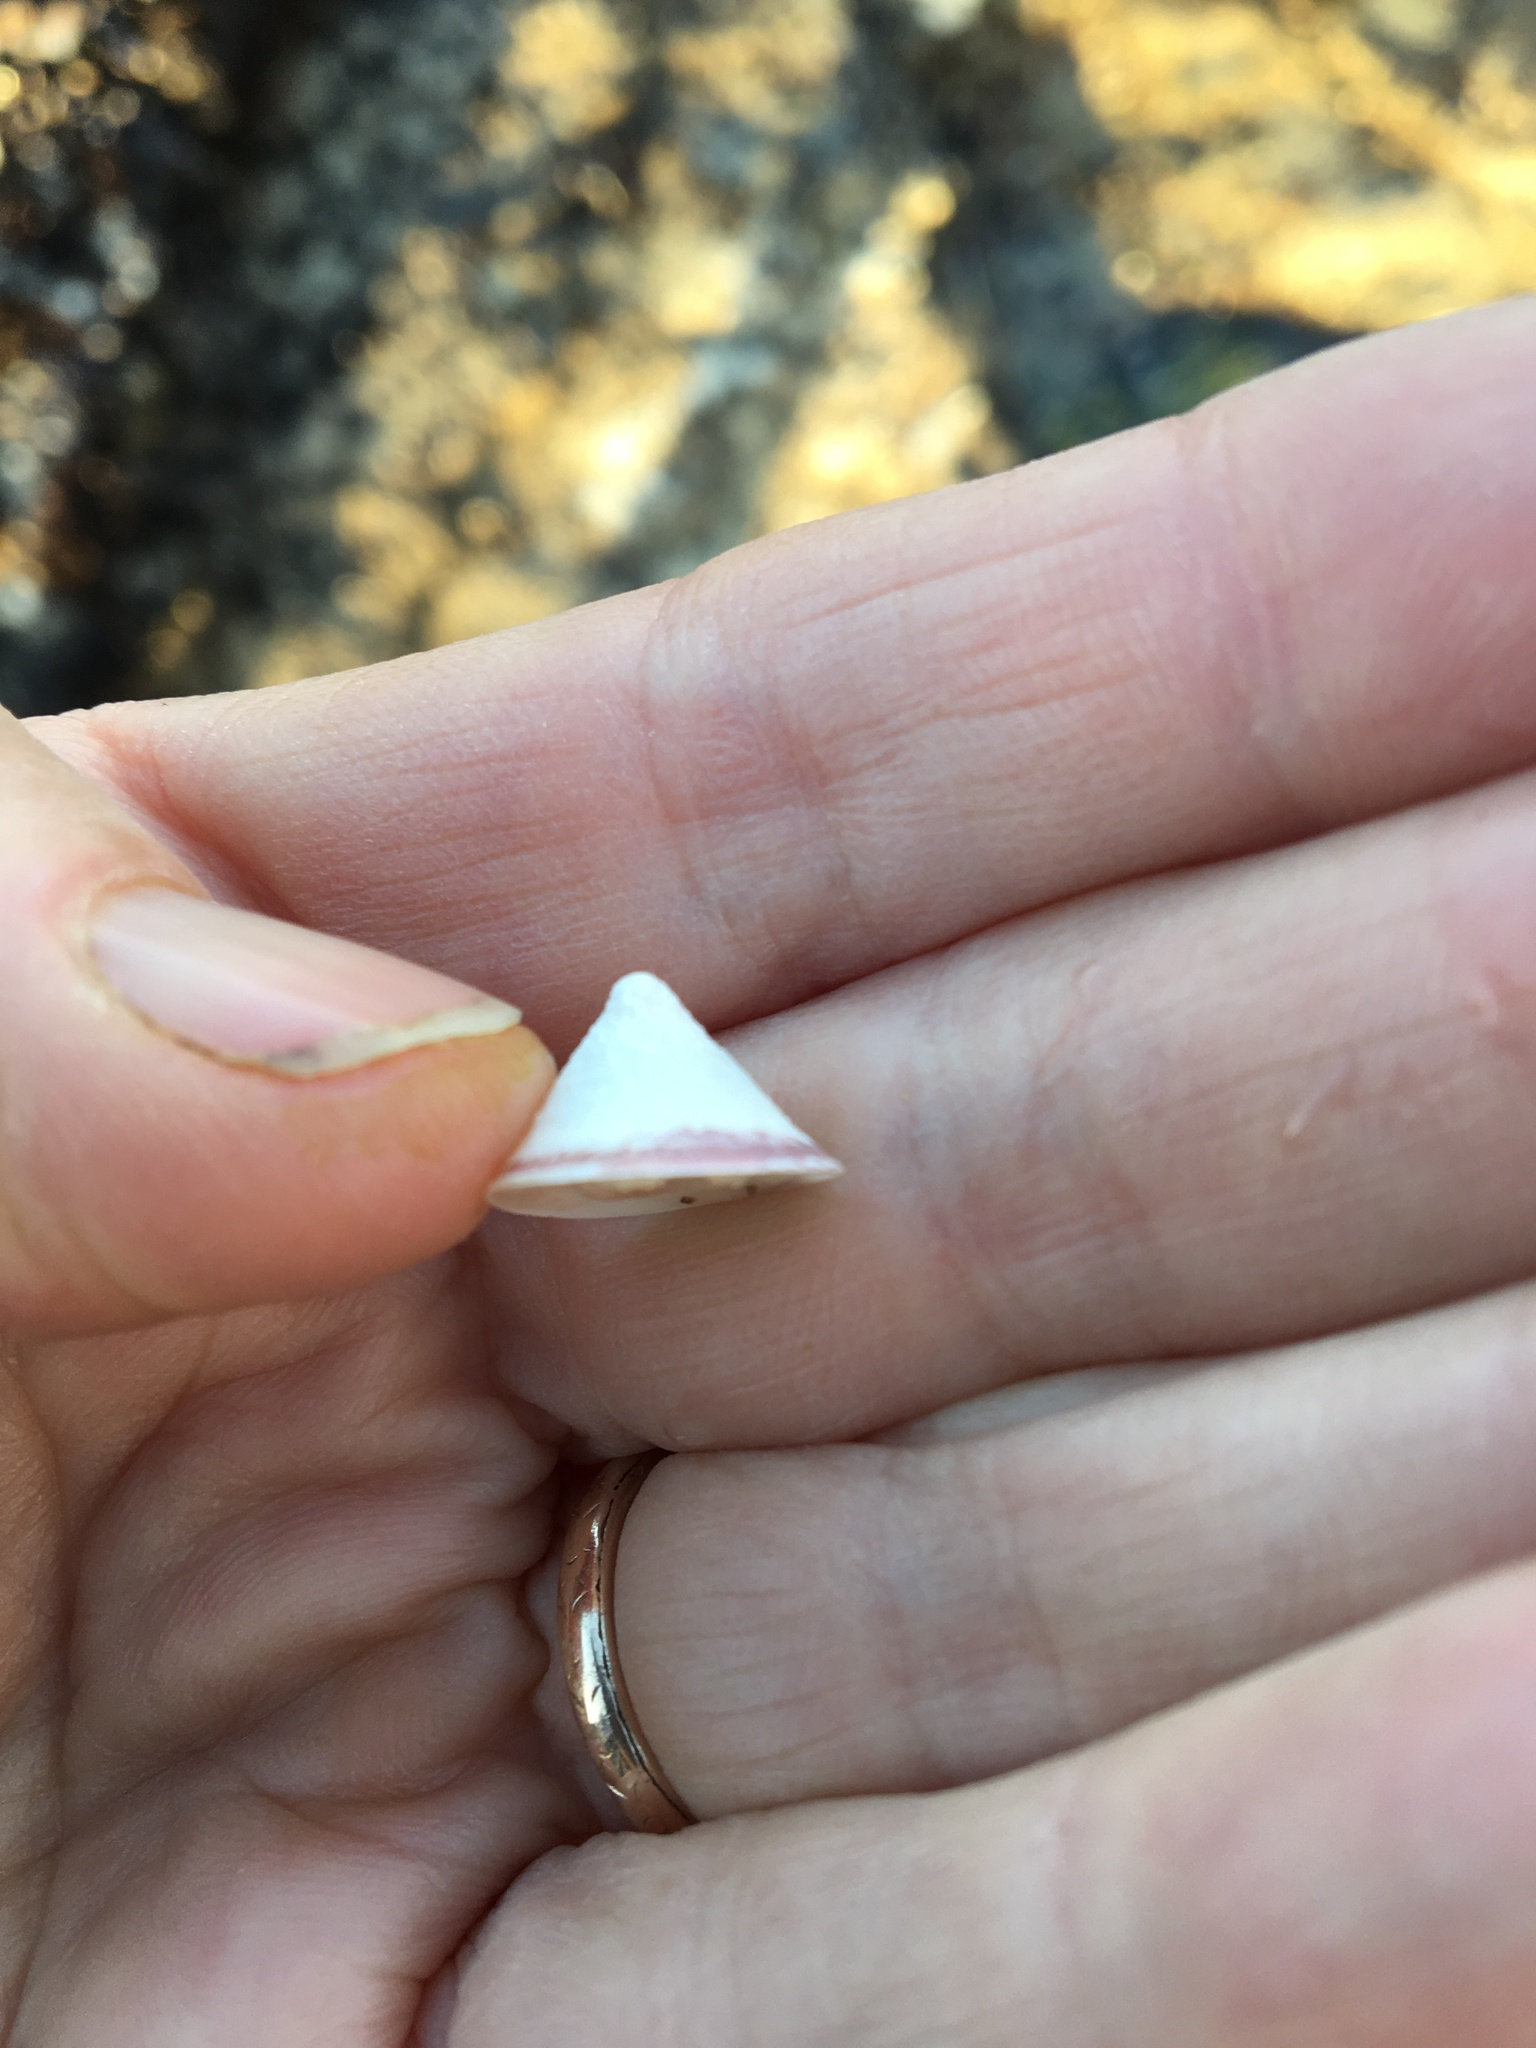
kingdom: Animalia
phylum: Mollusca
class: Gastropoda
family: Acmaeidae
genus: Acmaea
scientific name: Acmaea mitra
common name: Pacific white cap limpet
